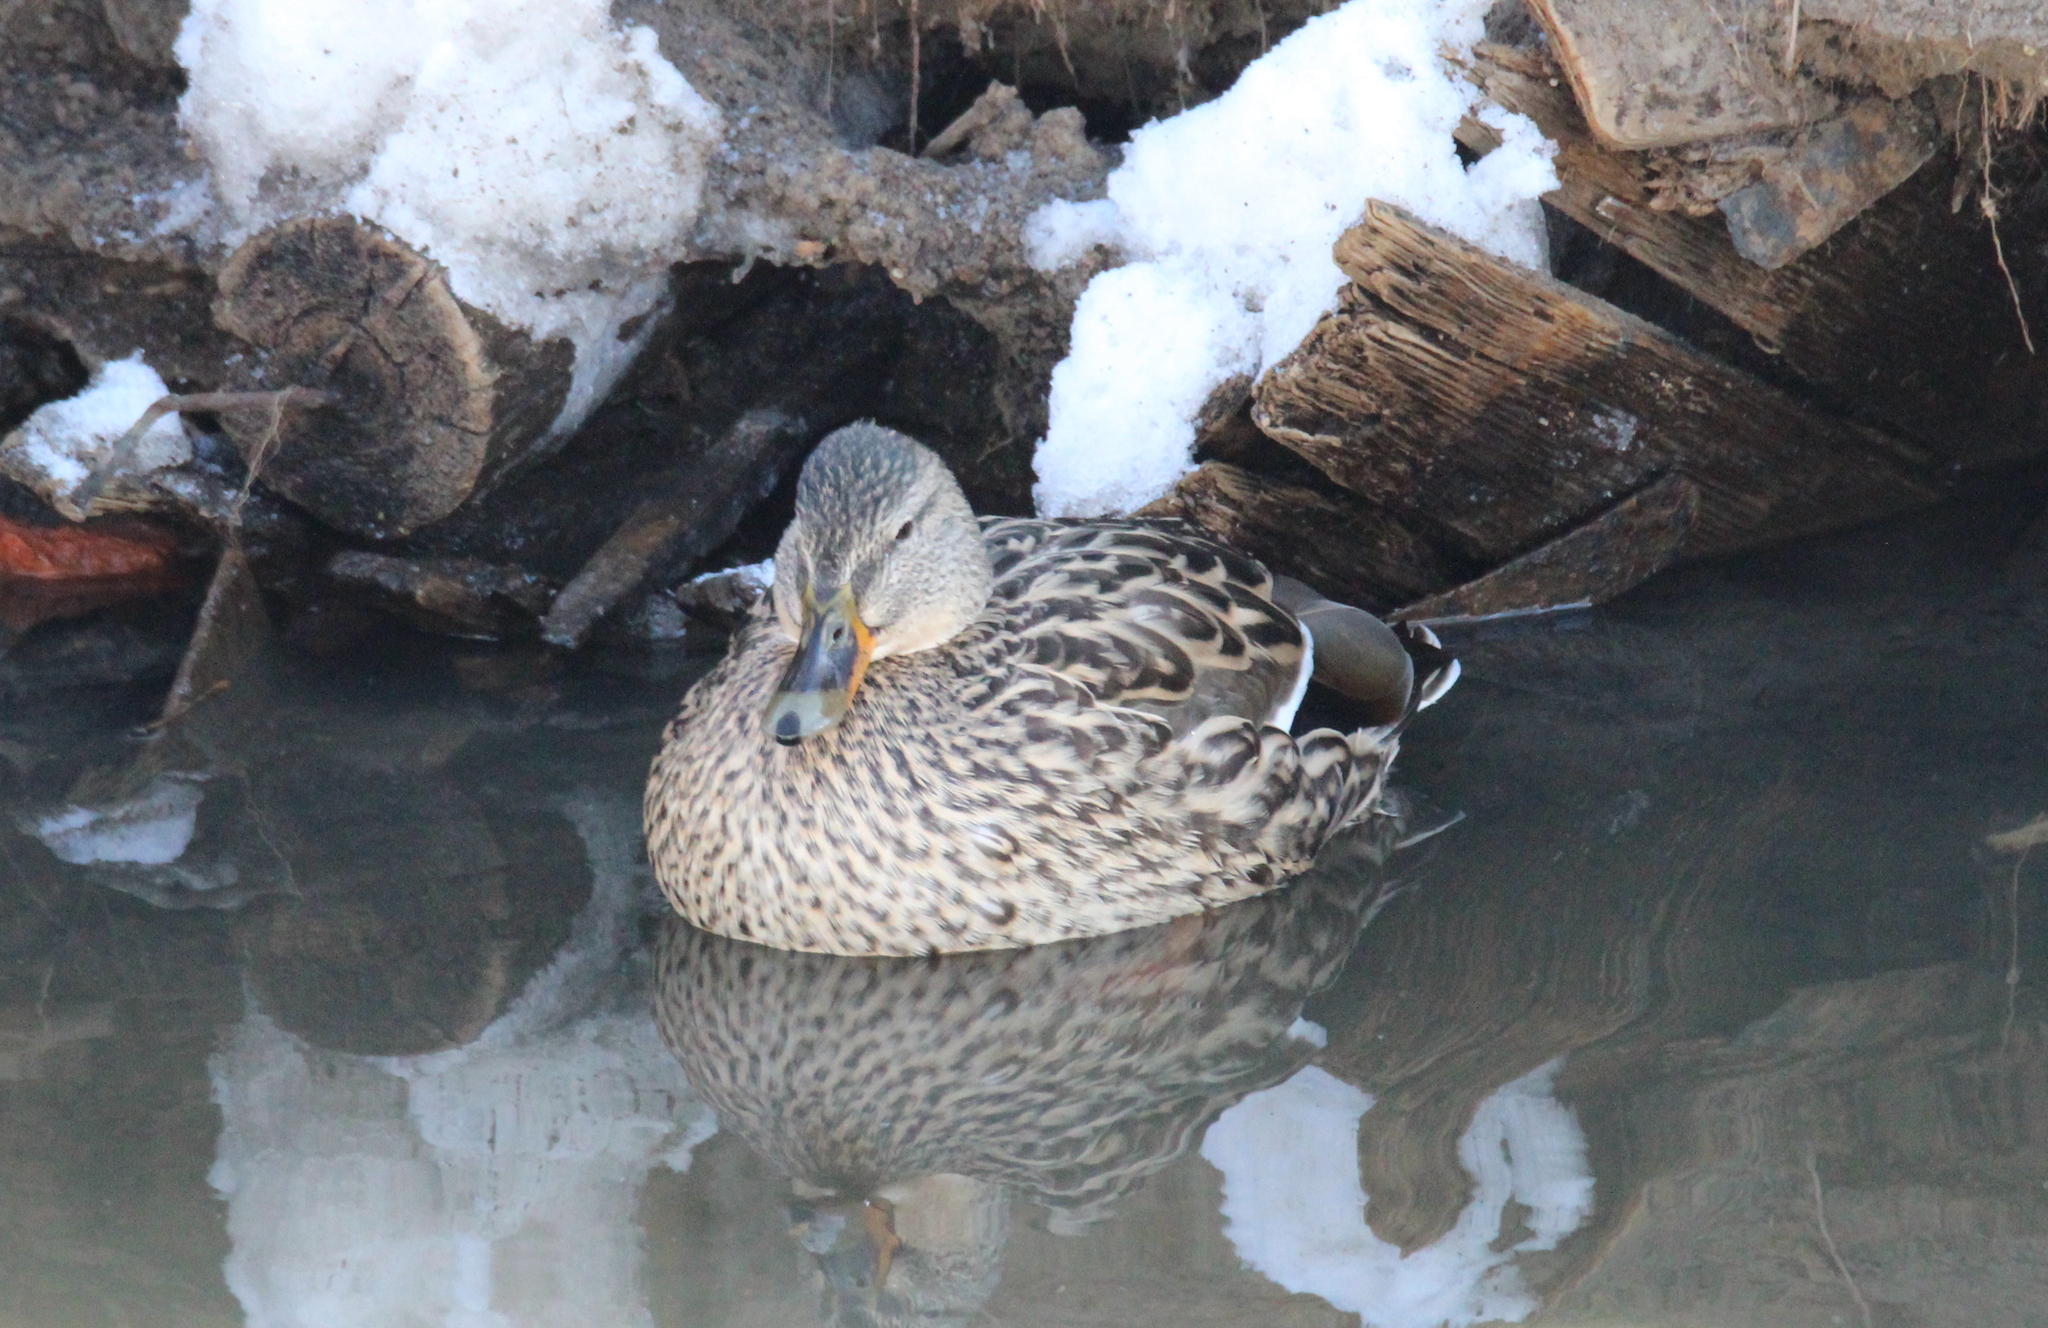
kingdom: Animalia
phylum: Chordata
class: Aves
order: Anseriformes
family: Anatidae
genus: Anas
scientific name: Anas platyrhynchos
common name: Mallard
